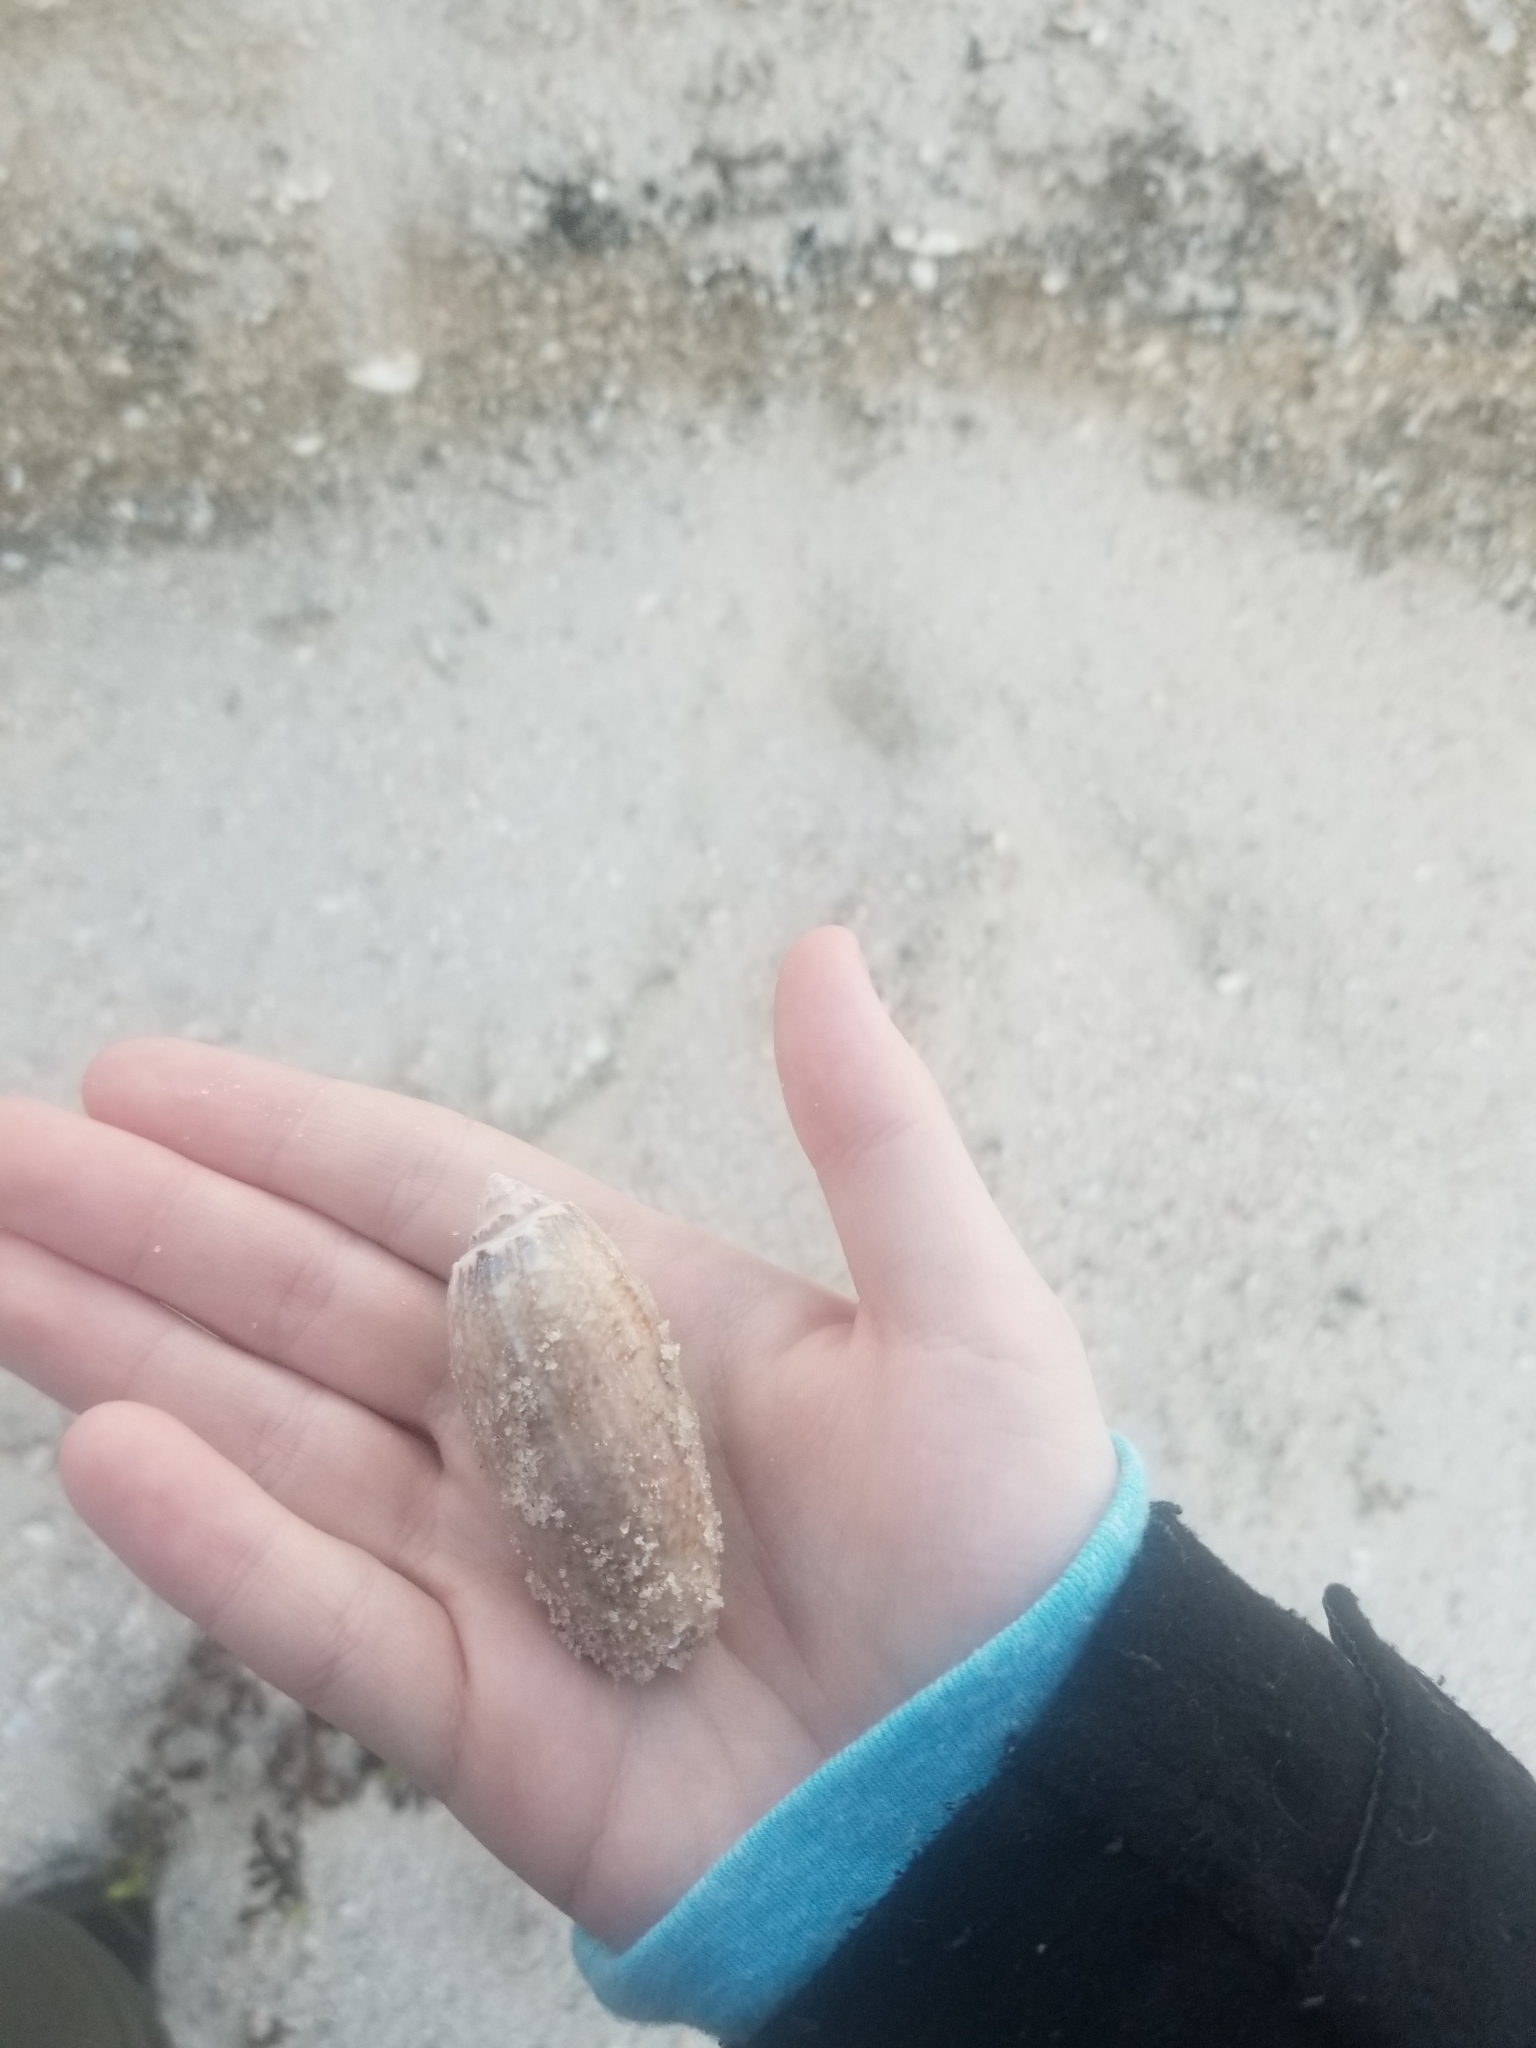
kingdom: Animalia
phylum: Mollusca
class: Gastropoda
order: Neogastropoda
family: Olividae
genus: Oliva
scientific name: Oliva sayana
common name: Lettered olive
